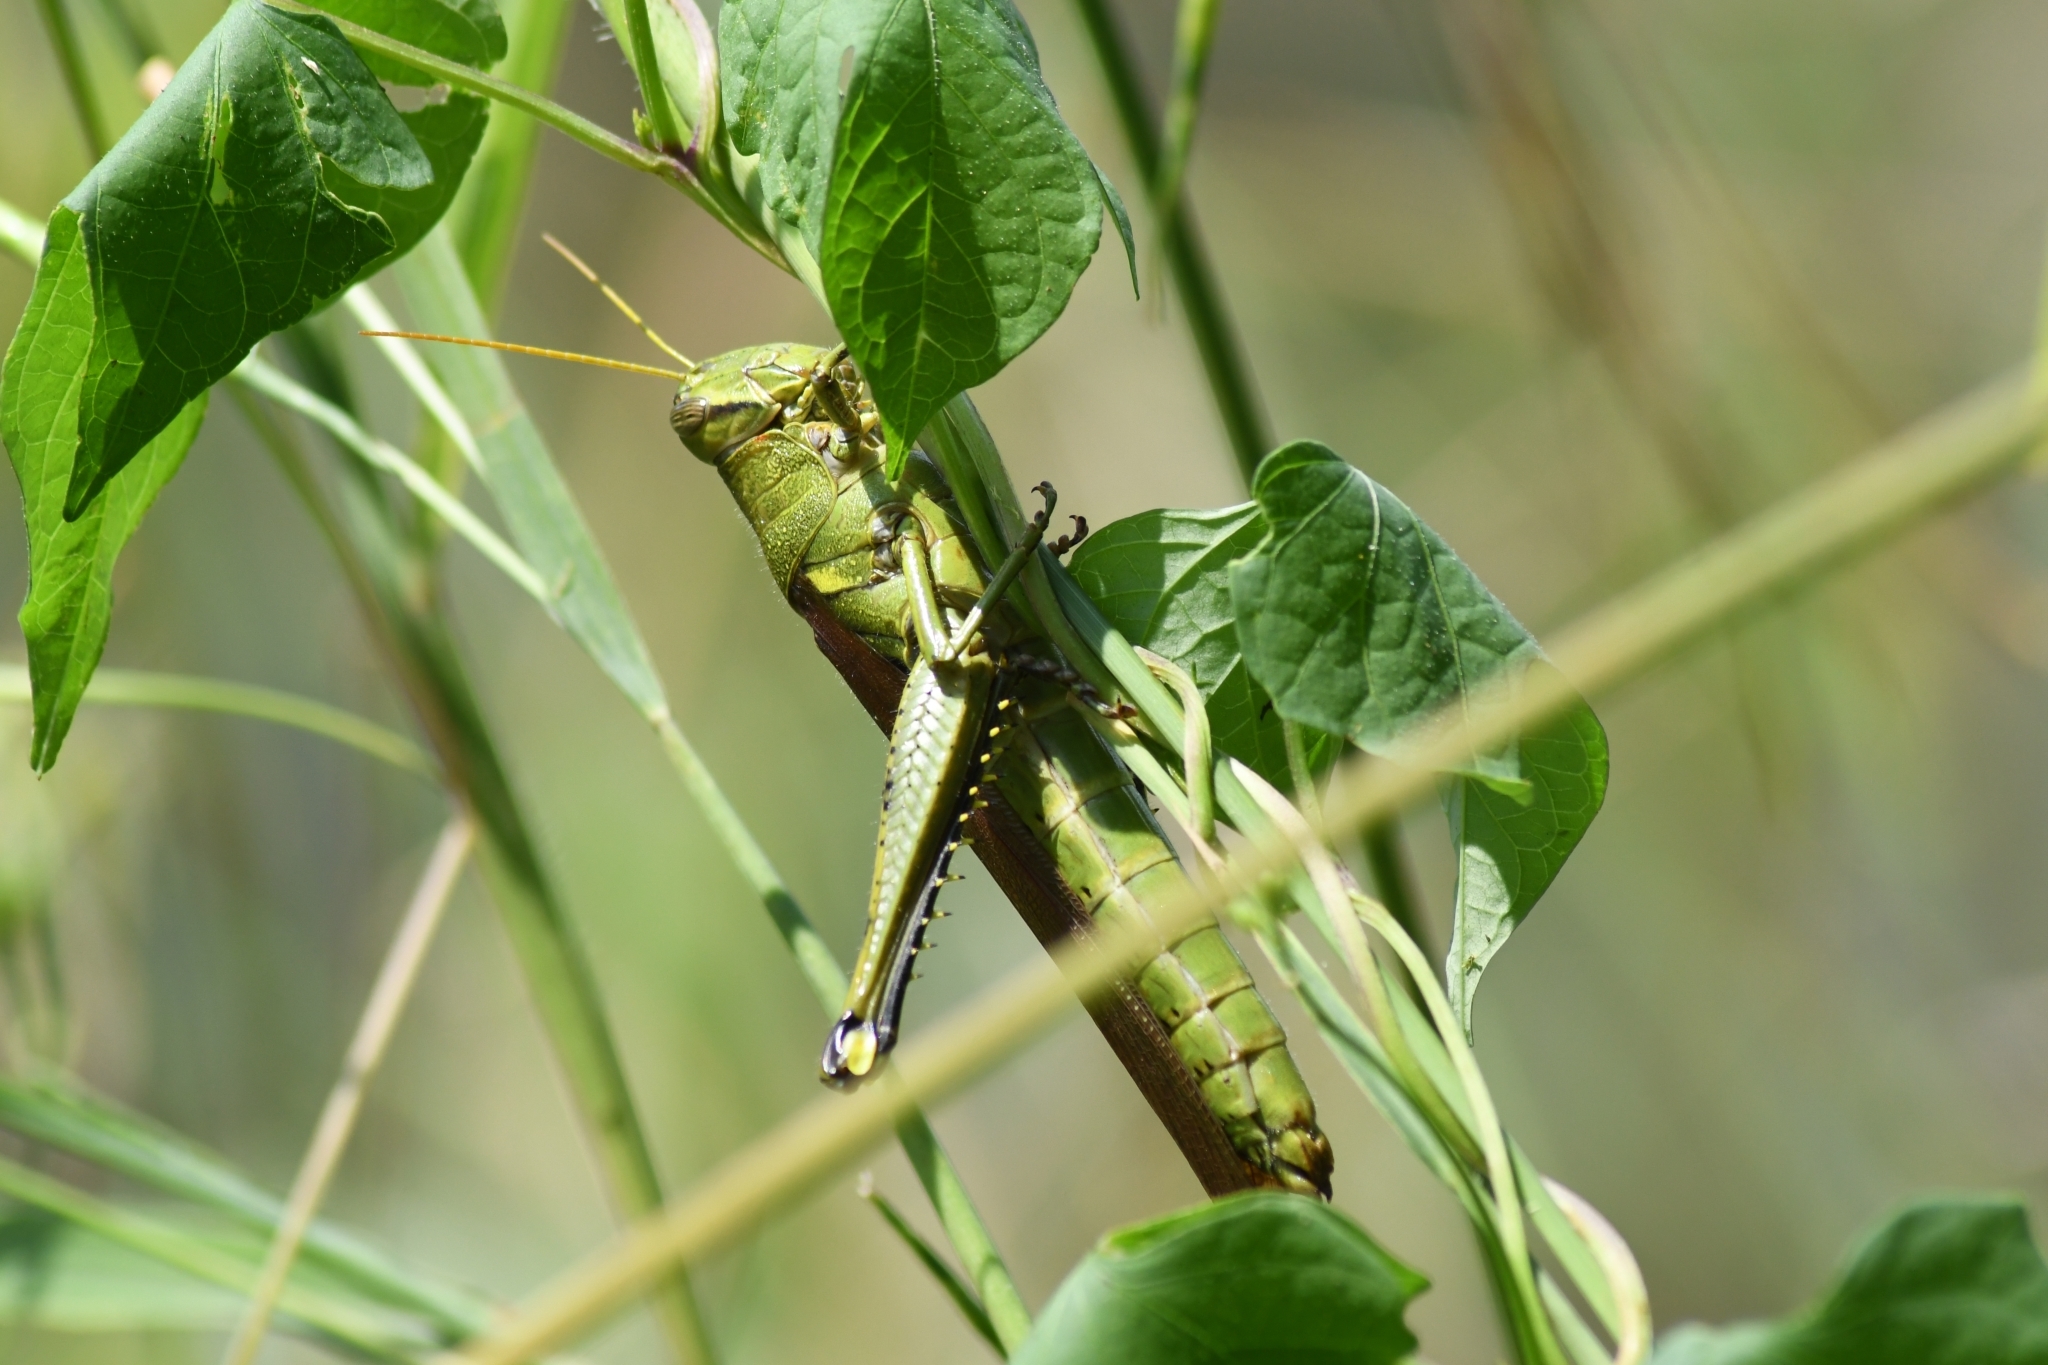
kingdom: Animalia
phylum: Arthropoda
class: Insecta
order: Orthoptera
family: Acrididae
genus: Schistocerca
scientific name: Schistocerca obscura
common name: Obscure bird grasshopper
